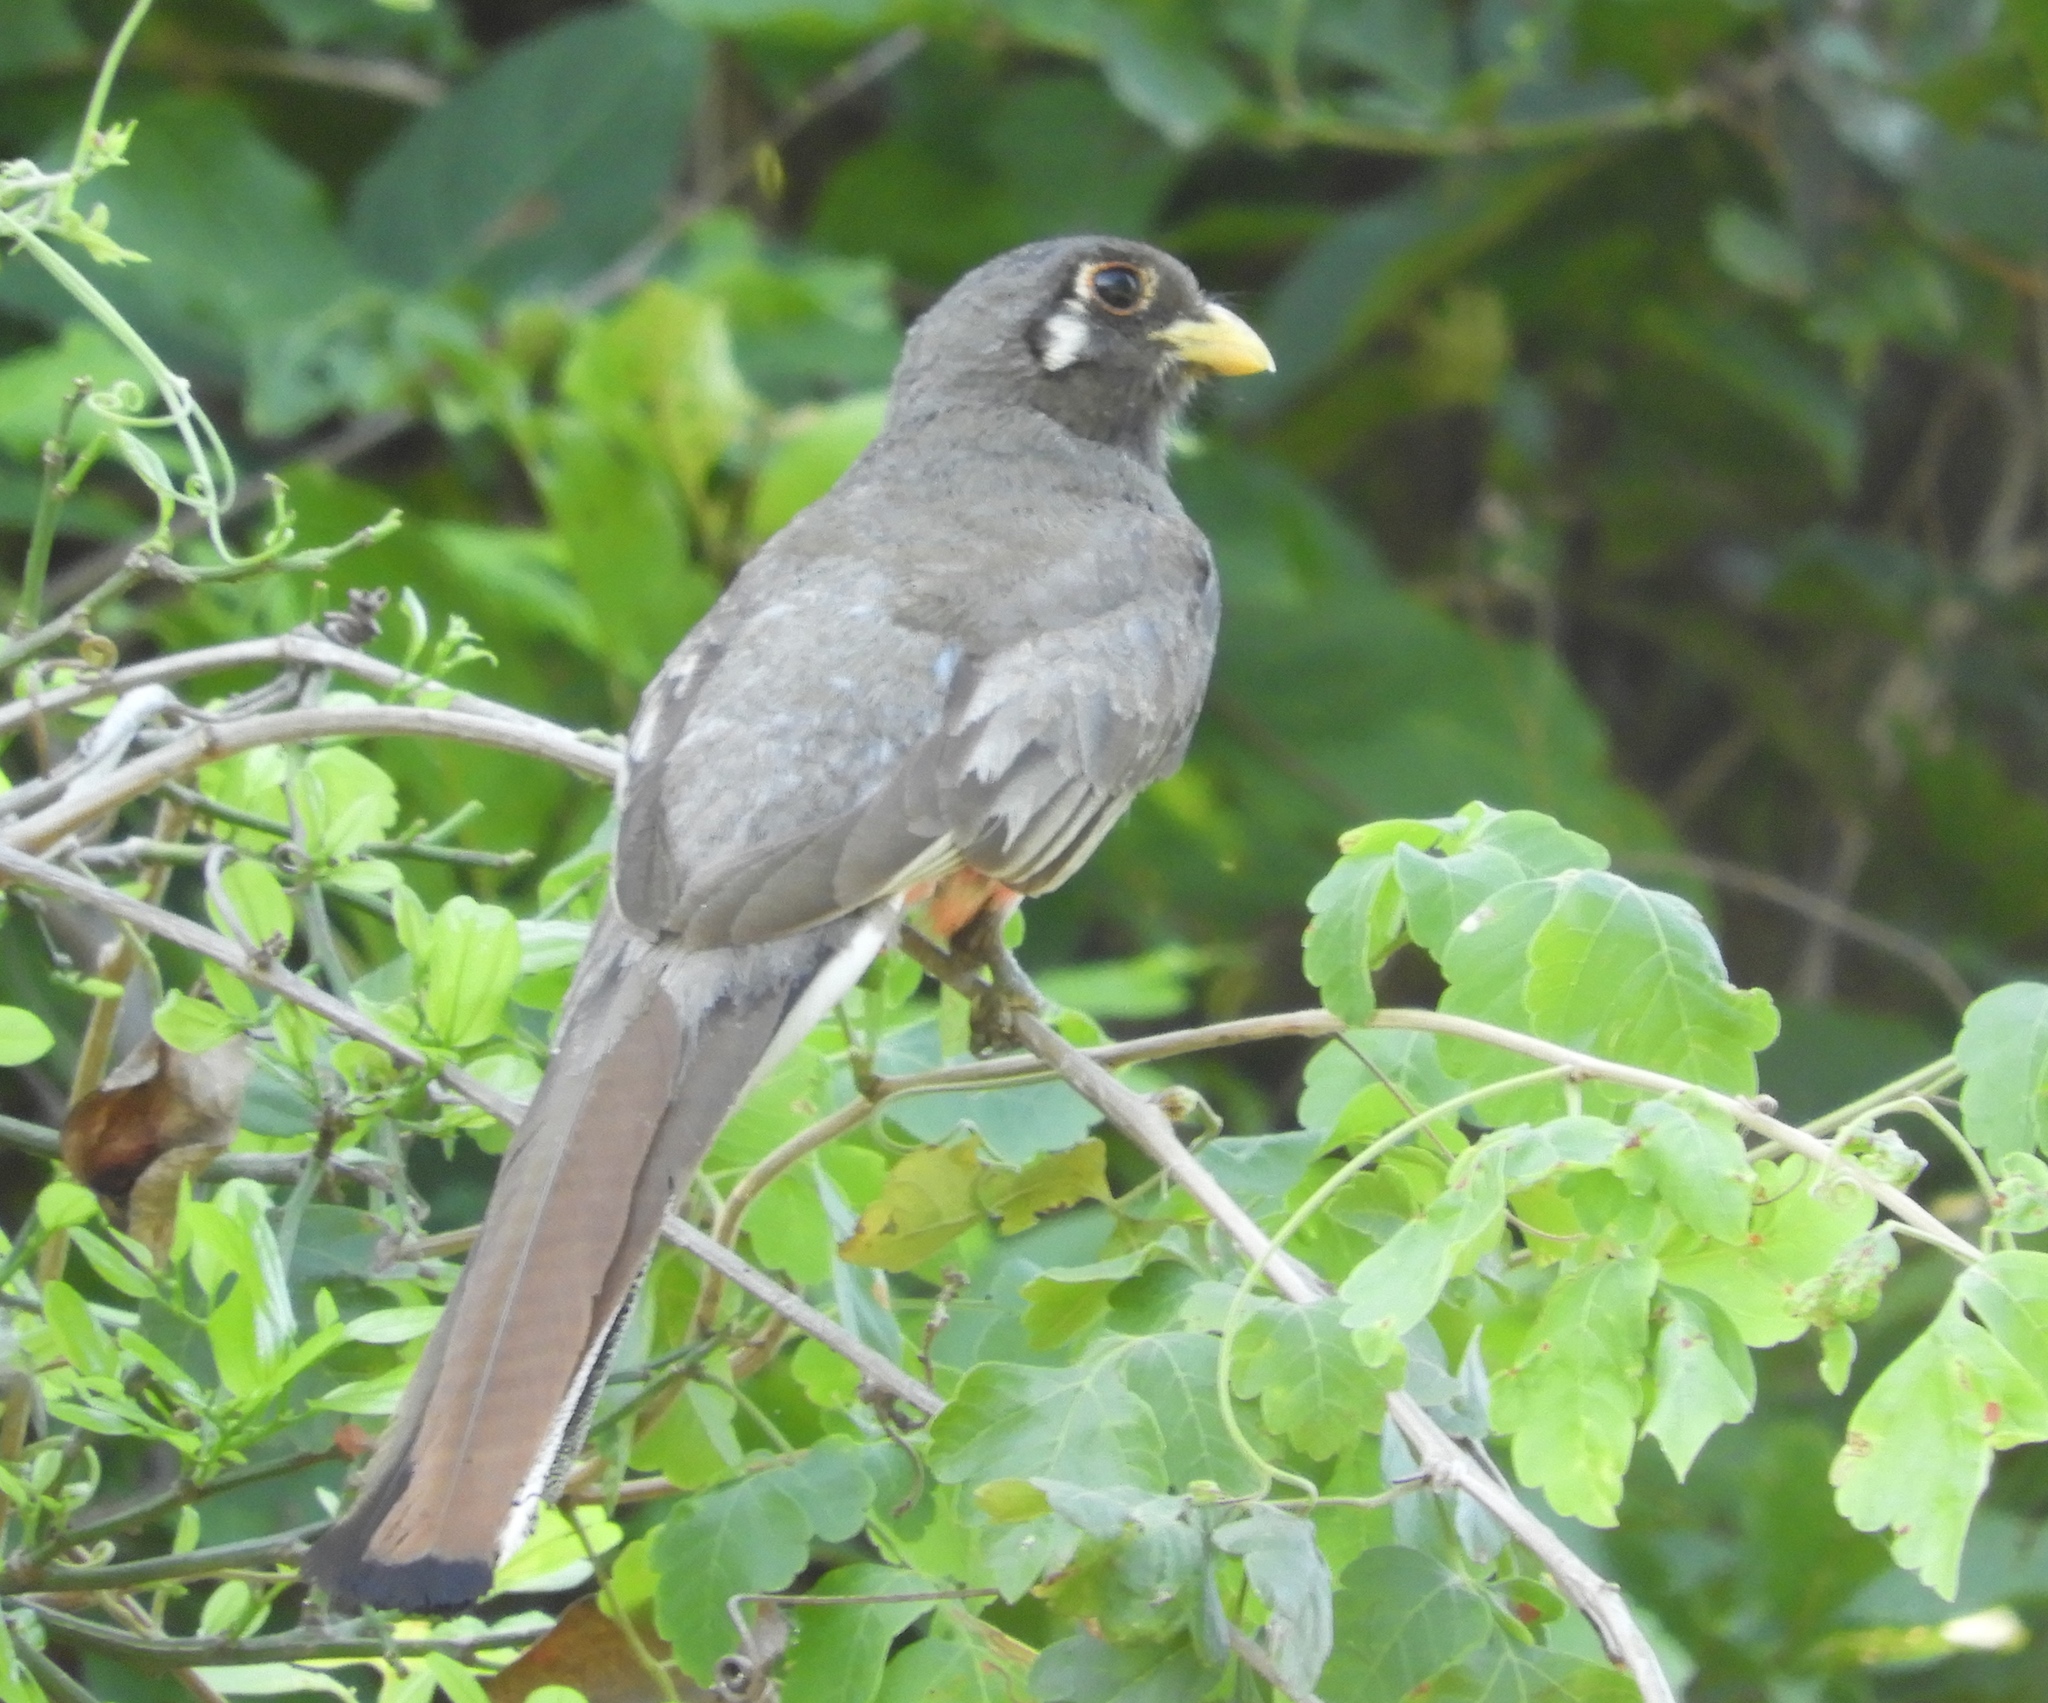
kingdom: Animalia
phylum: Chordata
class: Aves
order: Trogoniformes
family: Trogonidae
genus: Trogon
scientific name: Trogon elegans
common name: Elegant trogon
